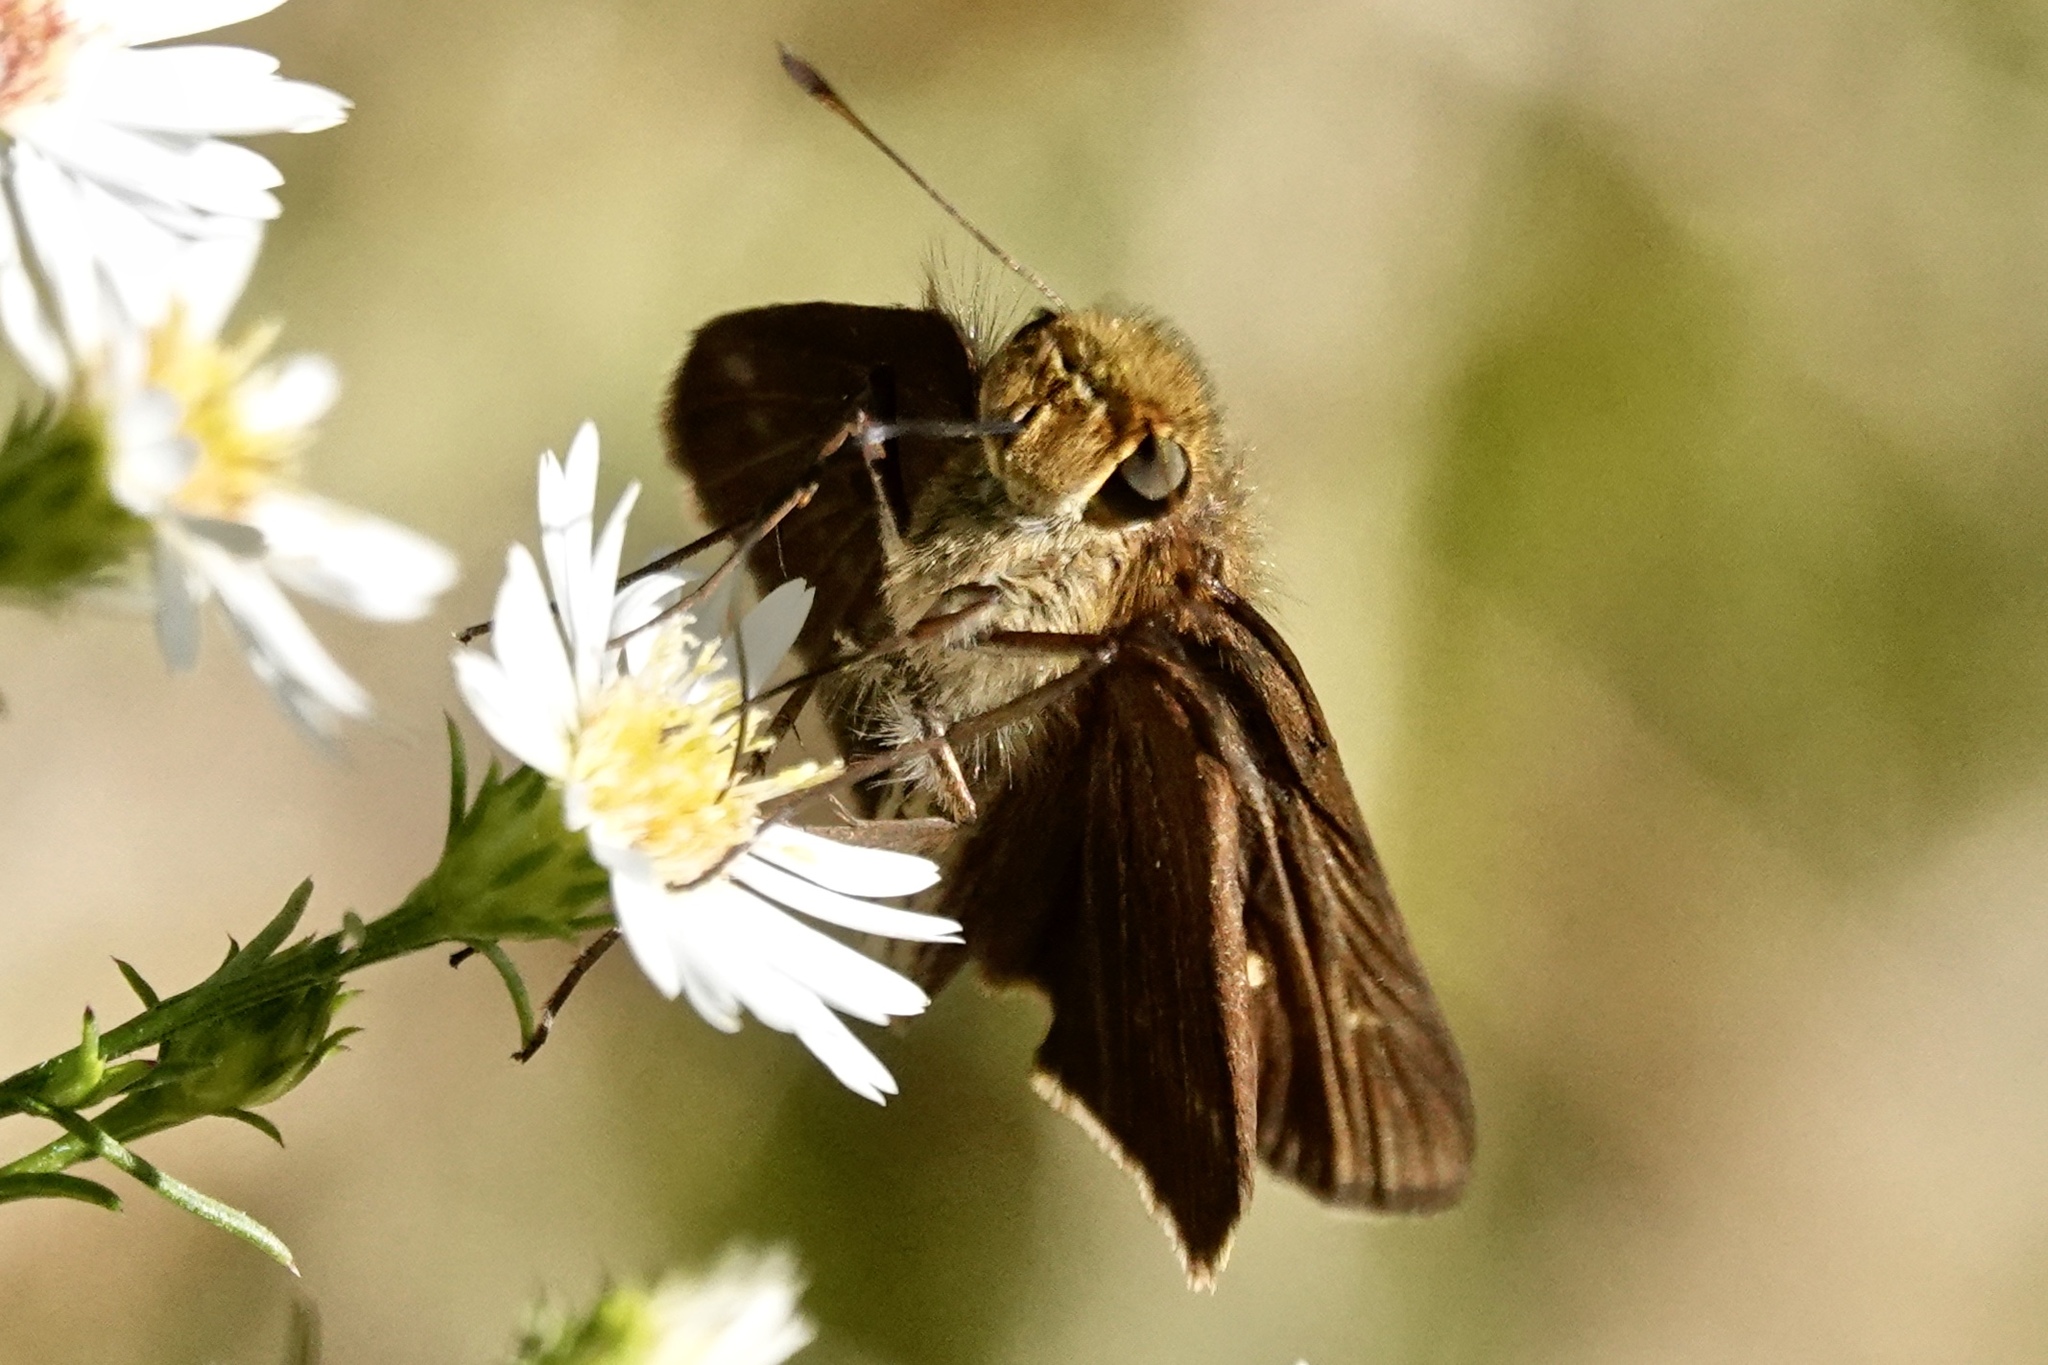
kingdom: Animalia
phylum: Arthropoda
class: Insecta
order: Lepidoptera
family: Hesperiidae
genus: Panoquina
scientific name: Panoquina ocola
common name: Ocola skipper
